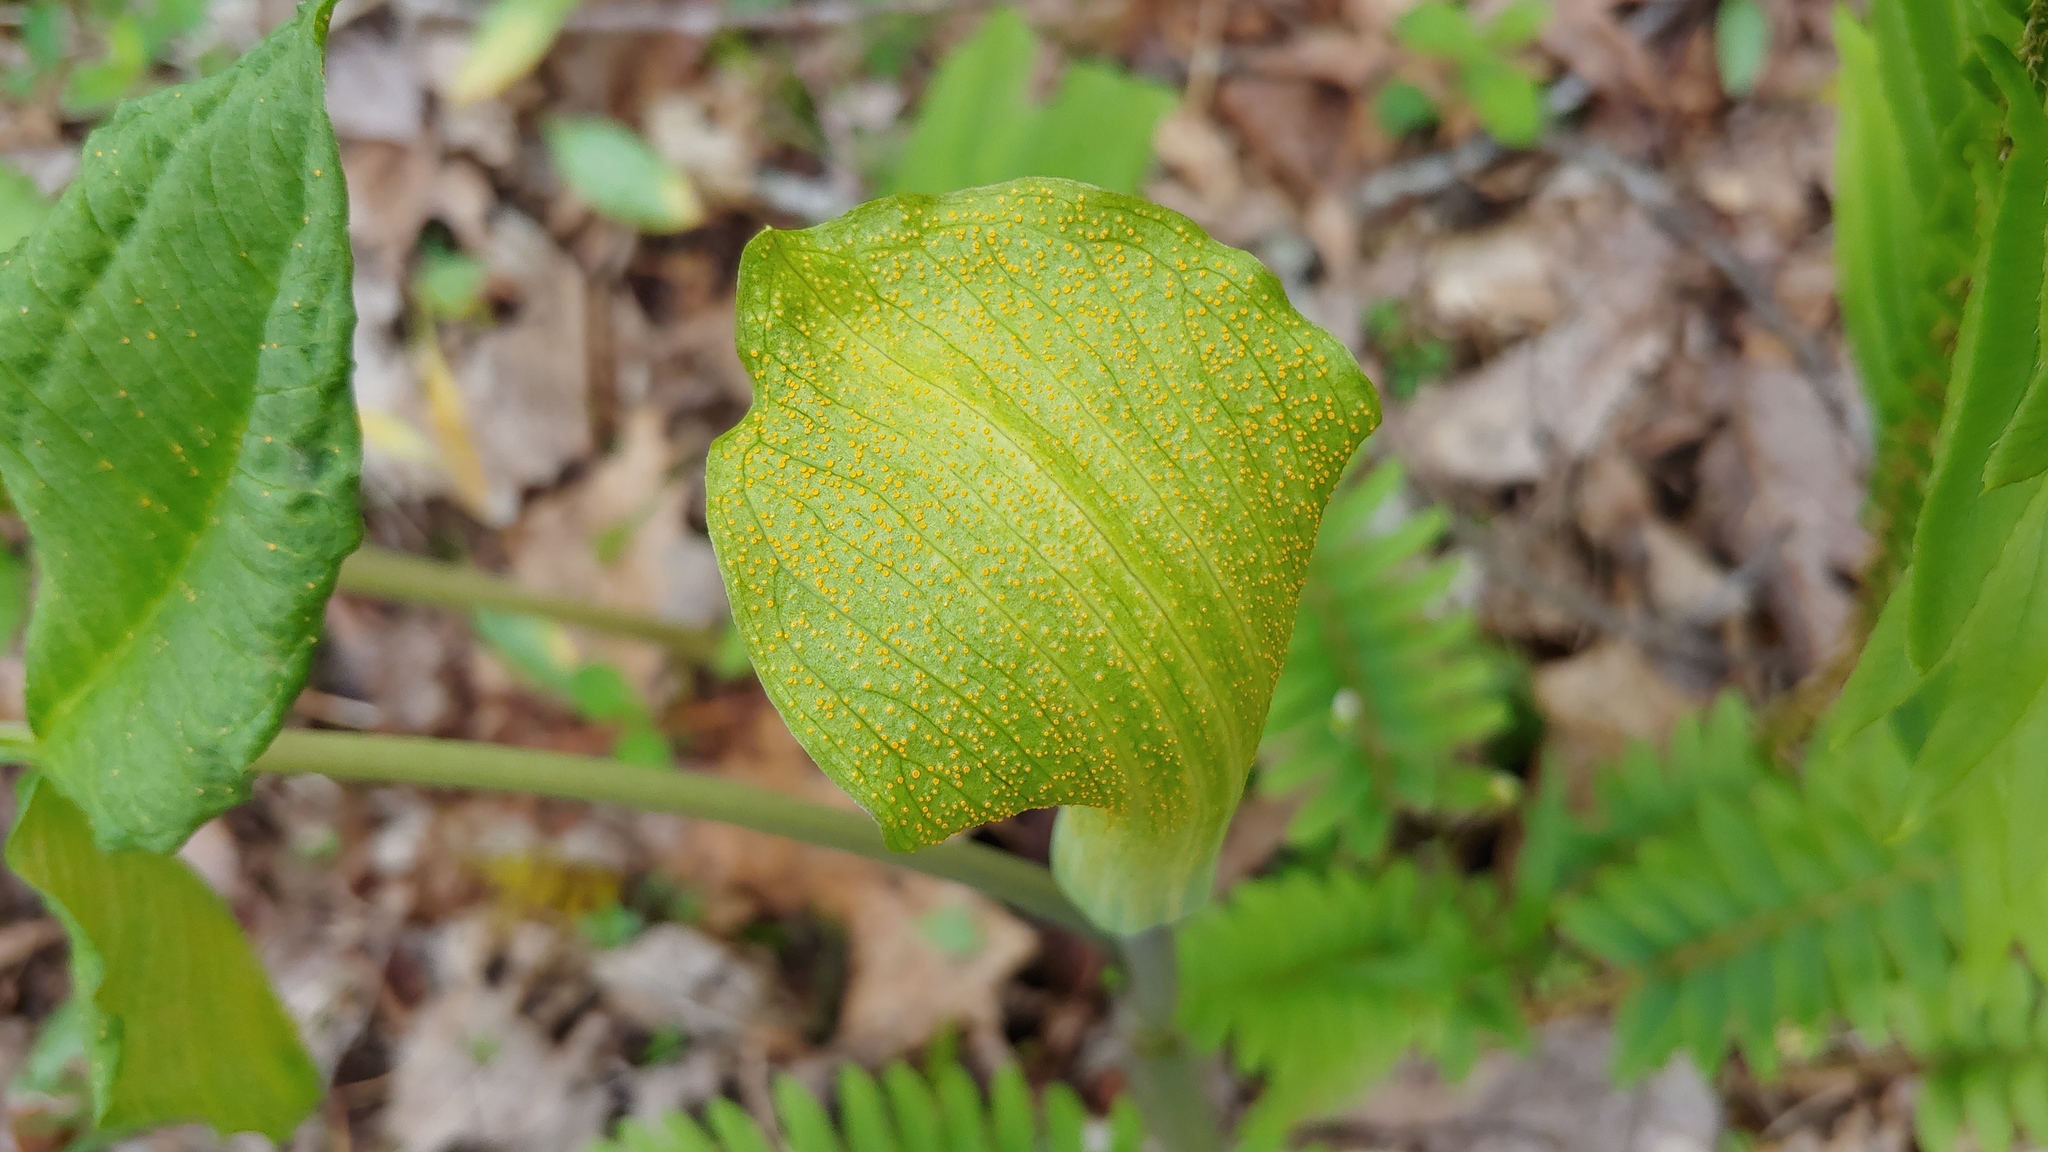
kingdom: Fungi
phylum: Basidiomycota
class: Pucciniomycetes
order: Pucciniales
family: Pucciniaceae
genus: Uromyces
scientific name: Uromyces ari-triphylli
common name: Jack-in-the-pulpit rust
